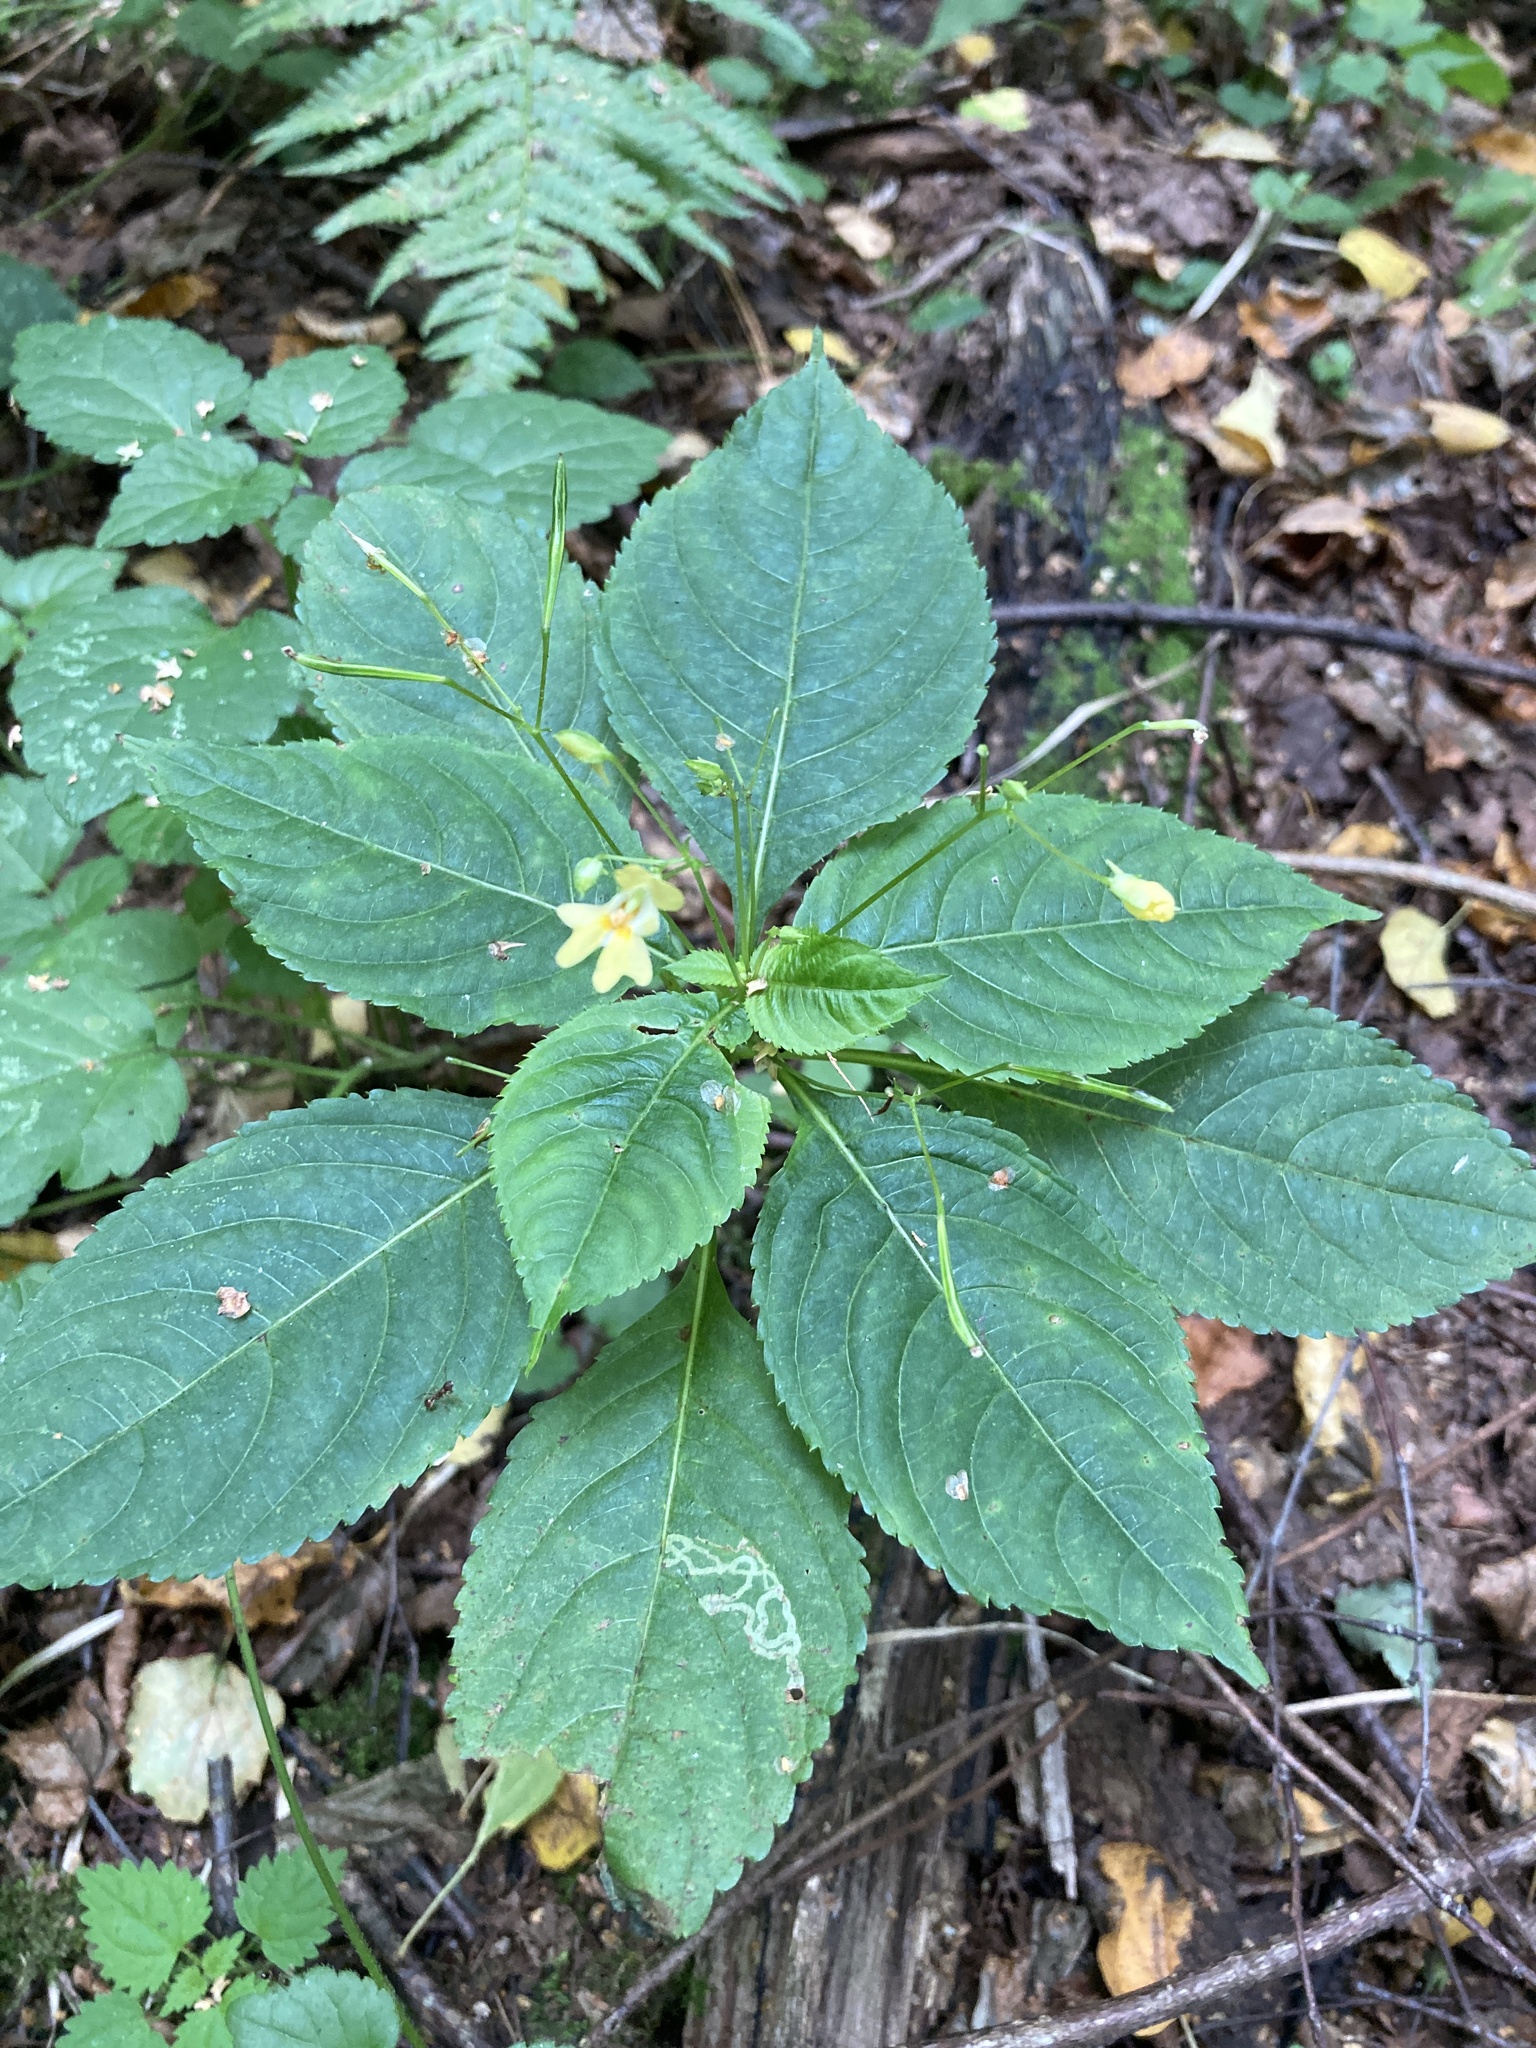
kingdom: Plantae
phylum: Tracheophyta
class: Magnoliopsida
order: Ericales
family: Balsaminaceae
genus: Impatiens
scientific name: Impatiens parviflora
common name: Small balsam
